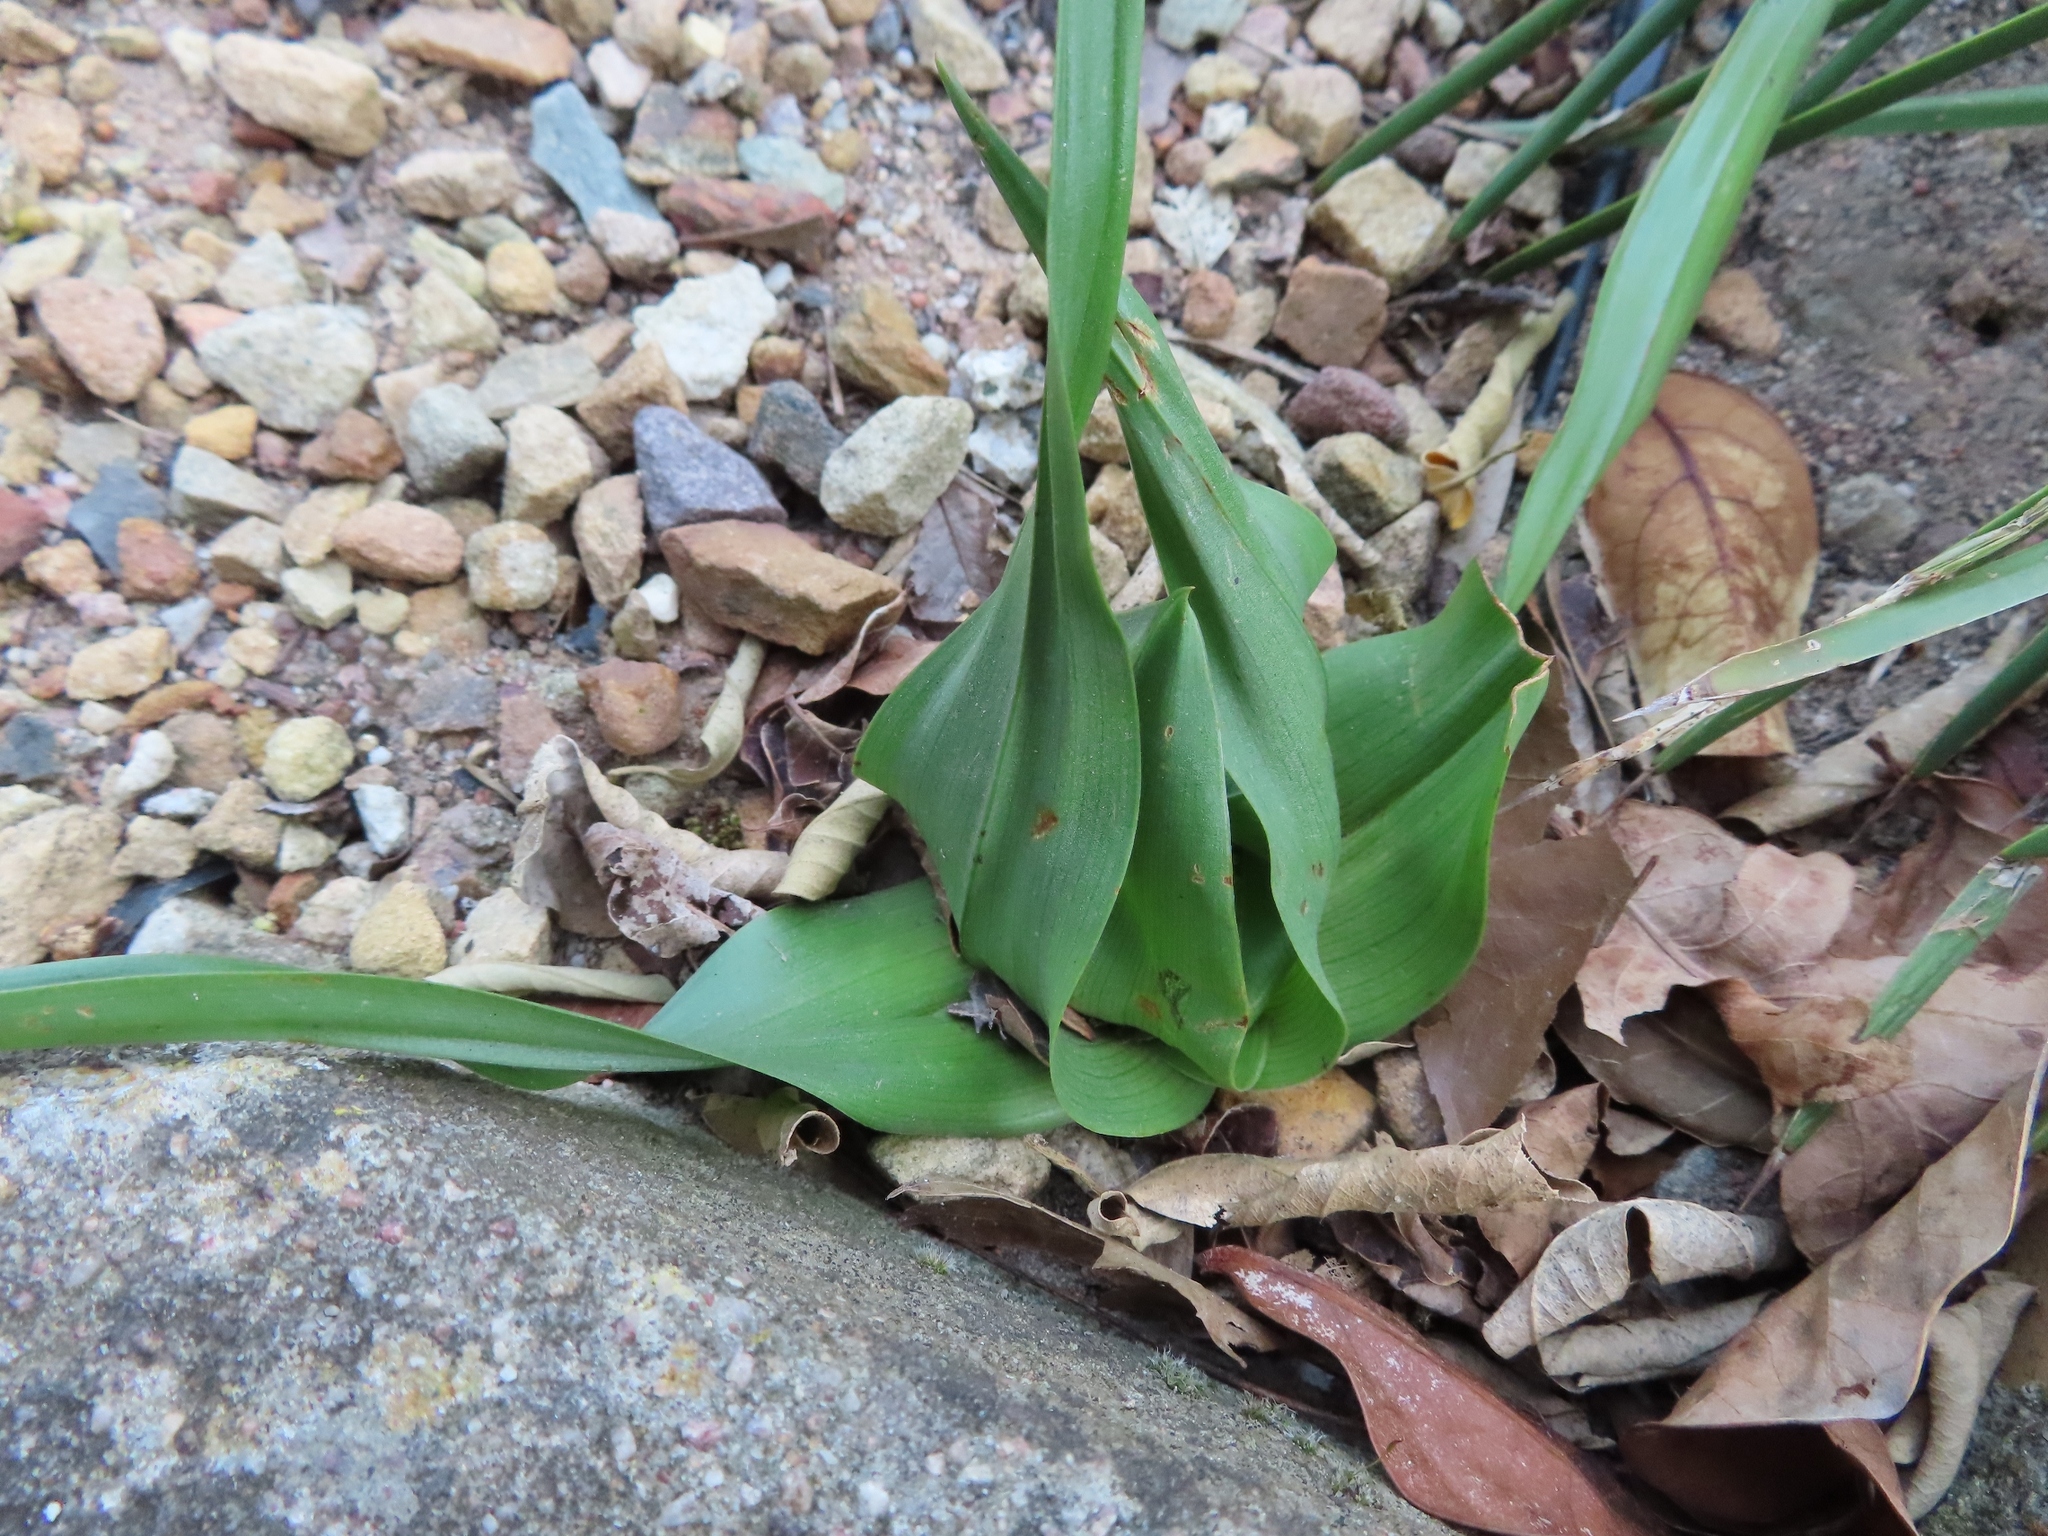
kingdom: Plantae
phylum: Tracheophyta
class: Liliopsida
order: Liliales
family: Colchicaceae
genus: Colchicum
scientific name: Colchicum eucomoides
